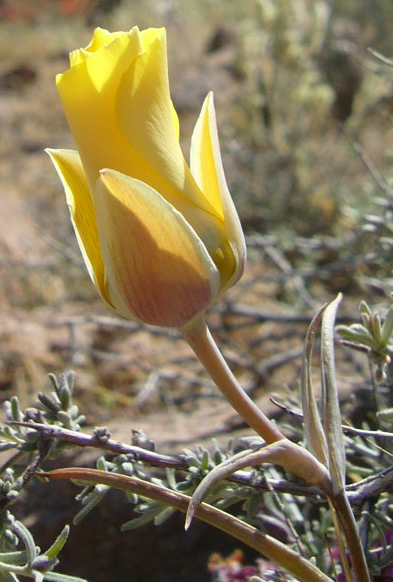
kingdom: Plantae
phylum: Tracheophyta
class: Liliopsida
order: Liliales
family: Liliaceae
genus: Calochortus
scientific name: Calochortus kennedyi
